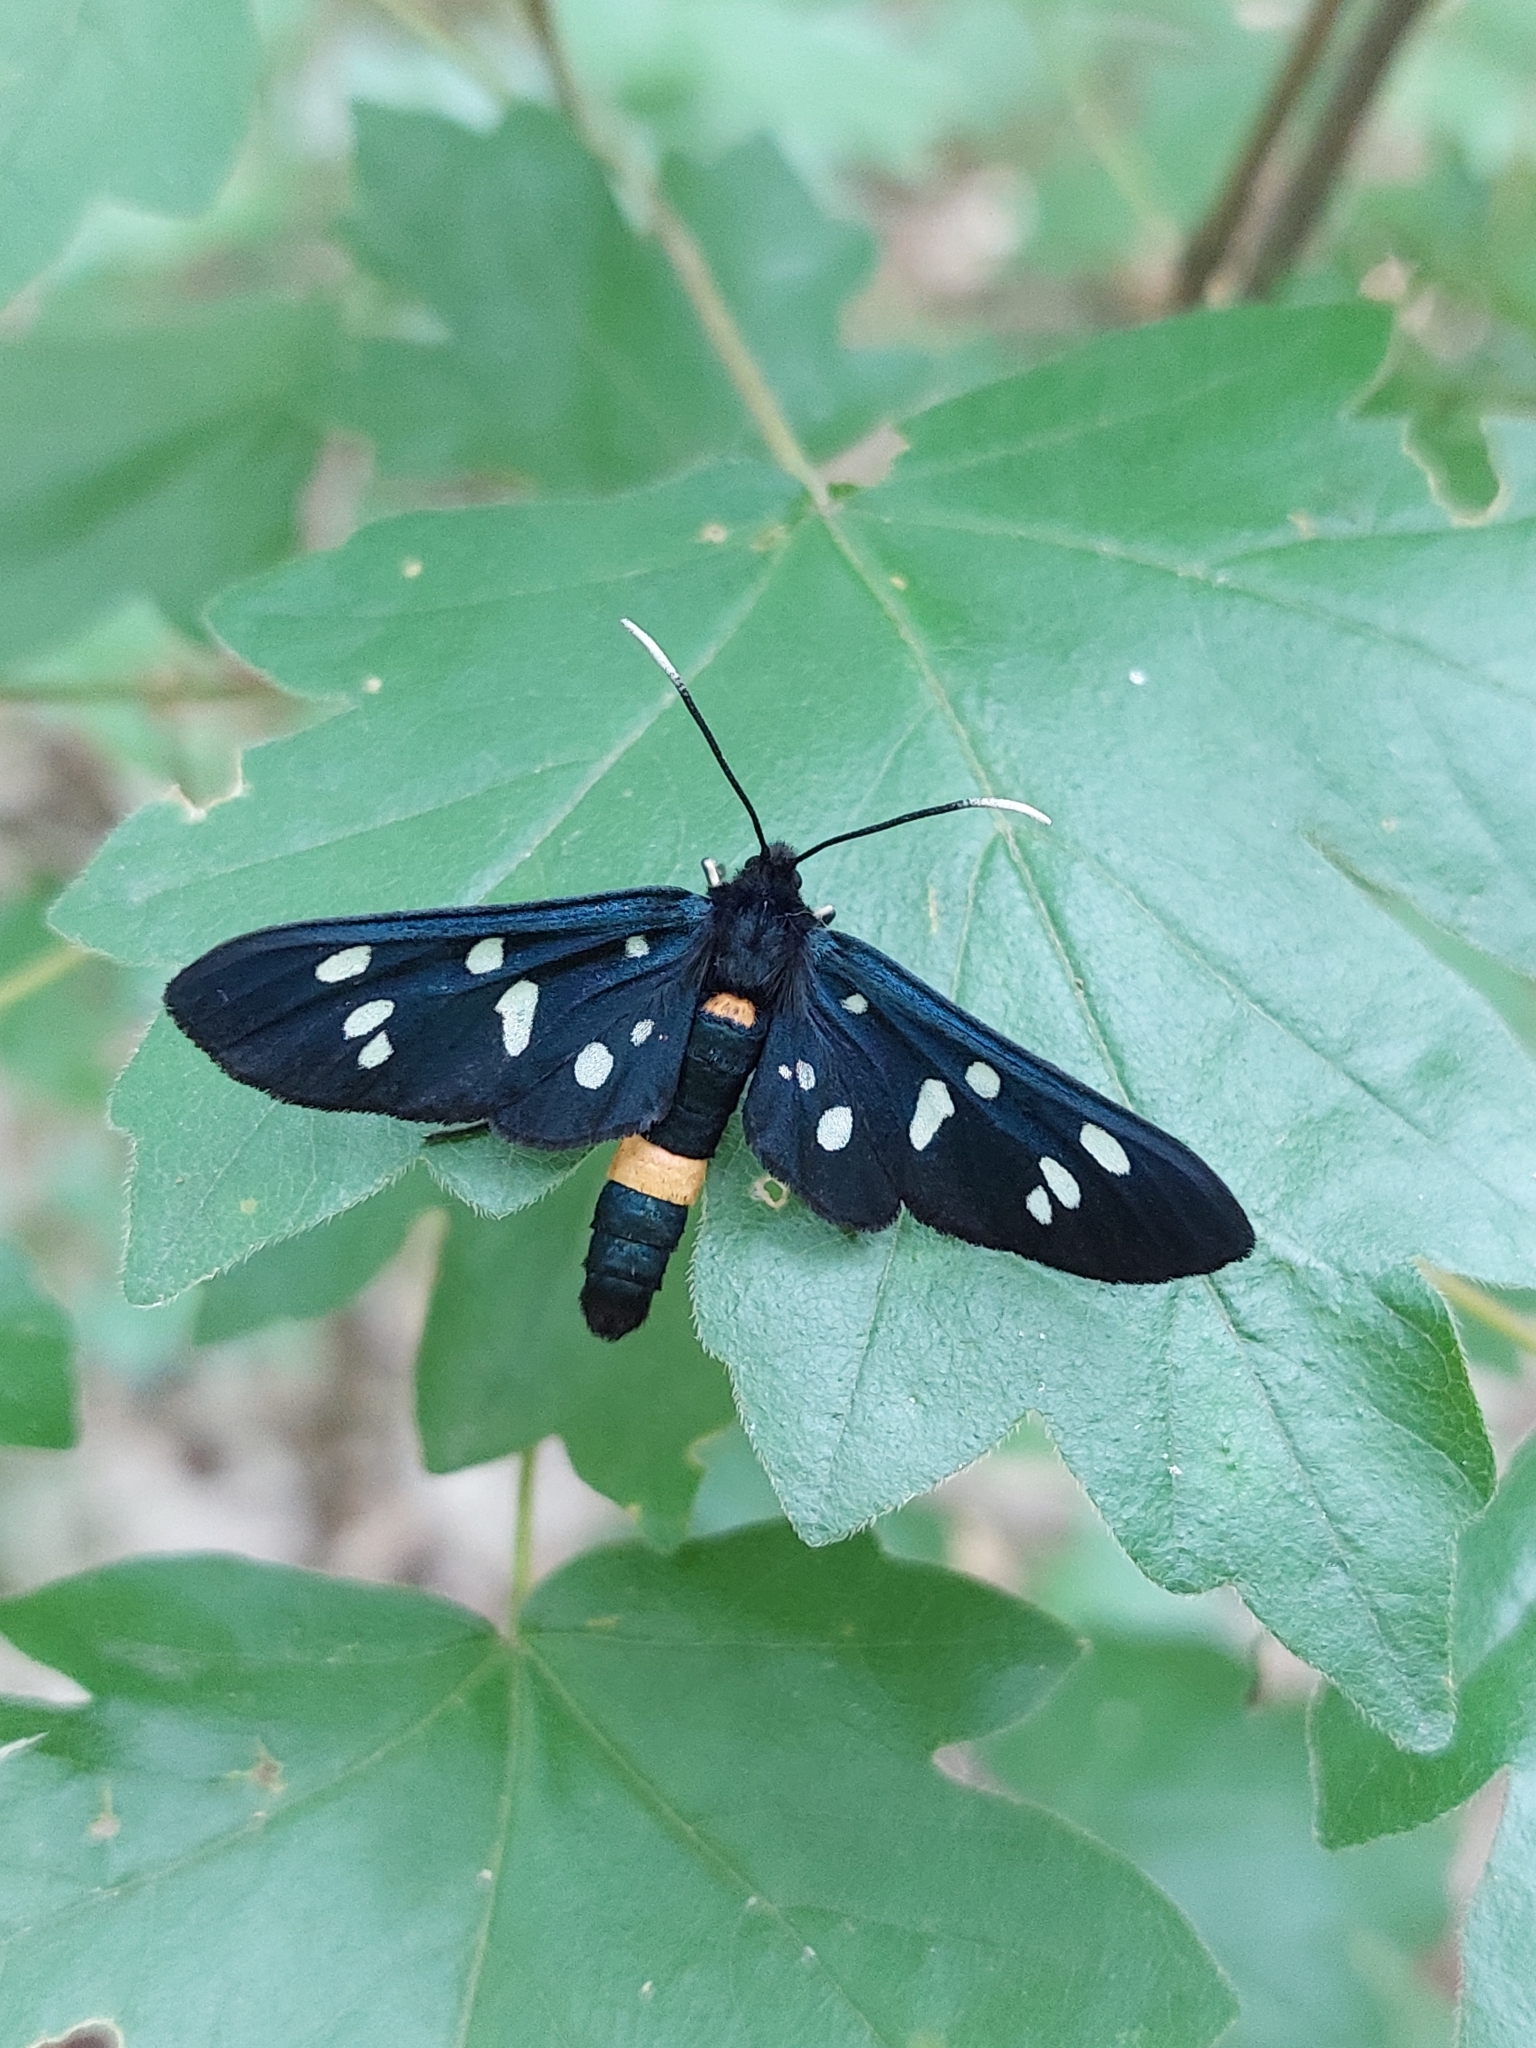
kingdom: Animalia
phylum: Arthropoda
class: Insecta
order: Lepidoptera
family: Erebidae
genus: Amata
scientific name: Amata phegea
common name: Nine-spotted
